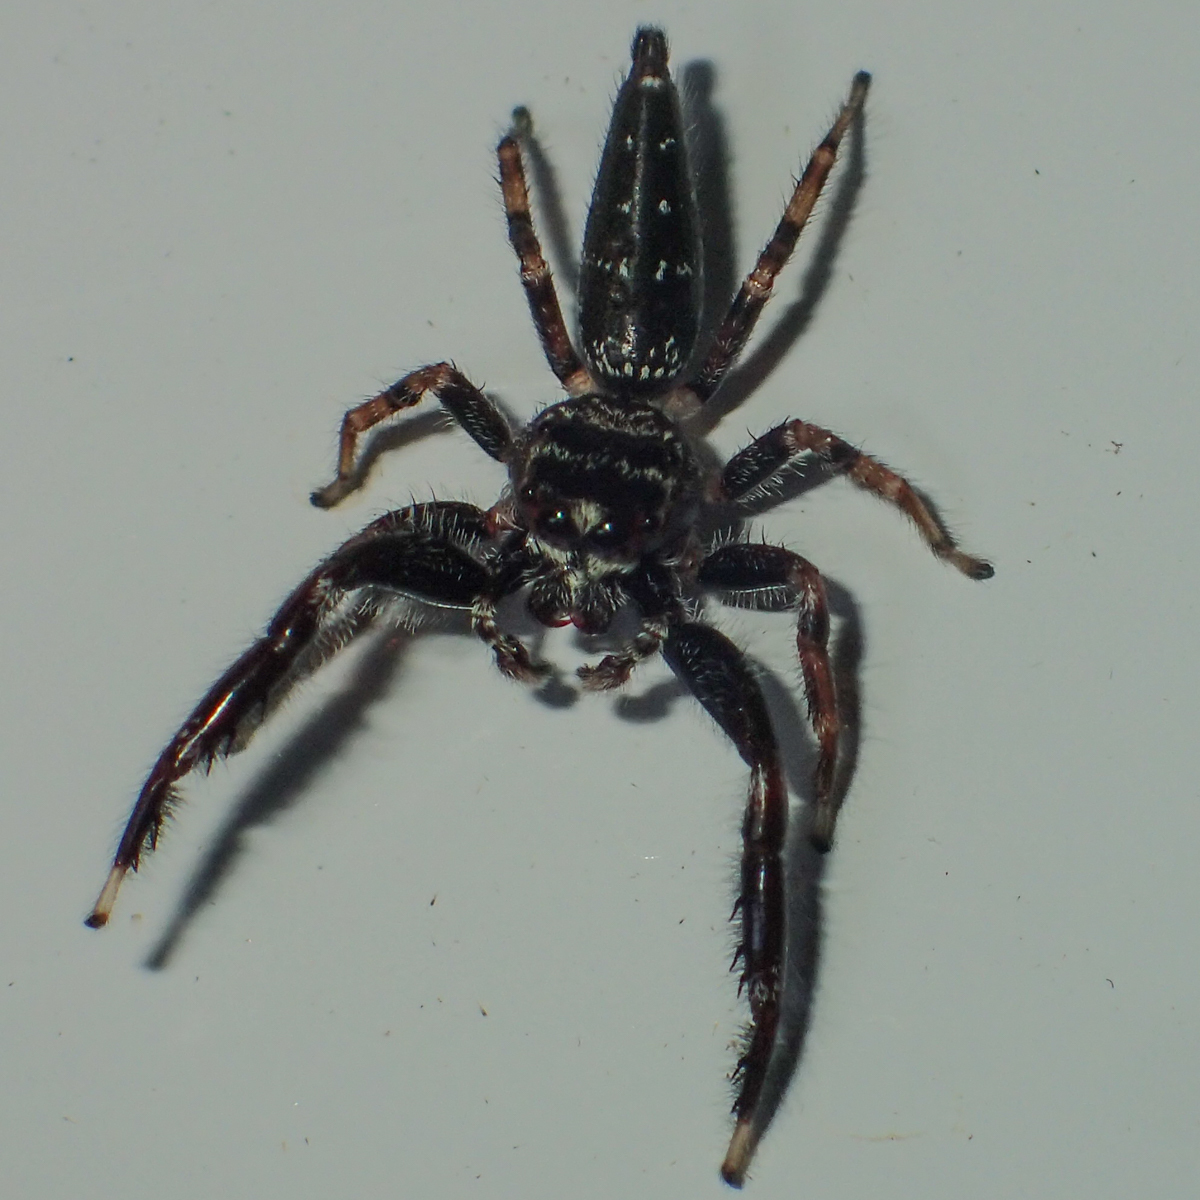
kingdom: Animalia
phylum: Arthropoda
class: Arachnida
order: Araneae
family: Salticidae
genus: Bavia
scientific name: Bavia sexpunctata
